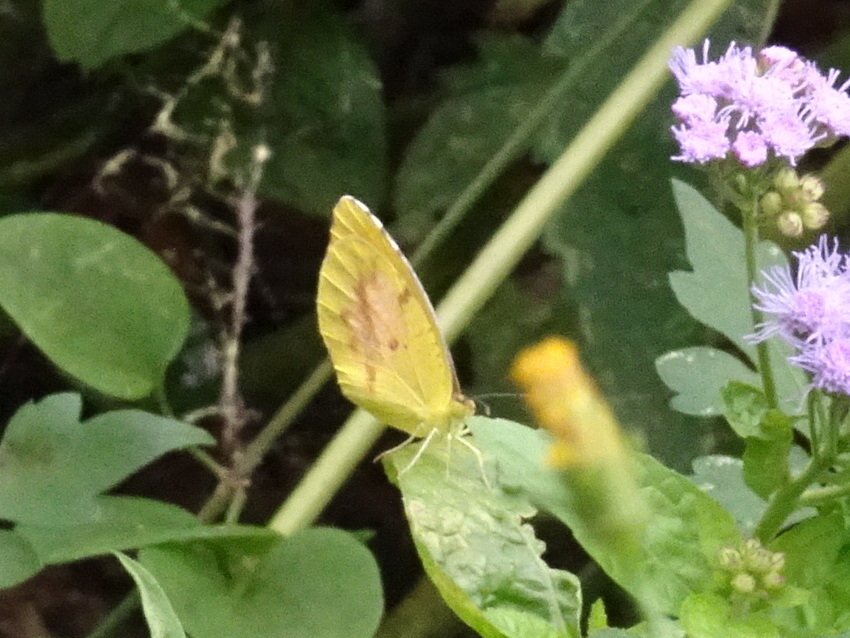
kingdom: Animalia
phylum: Arthropoda
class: Insecta
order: Lepidoptera
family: Pieridae
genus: Abaeis
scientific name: Abaeis nicippe
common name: Sleepy orange
